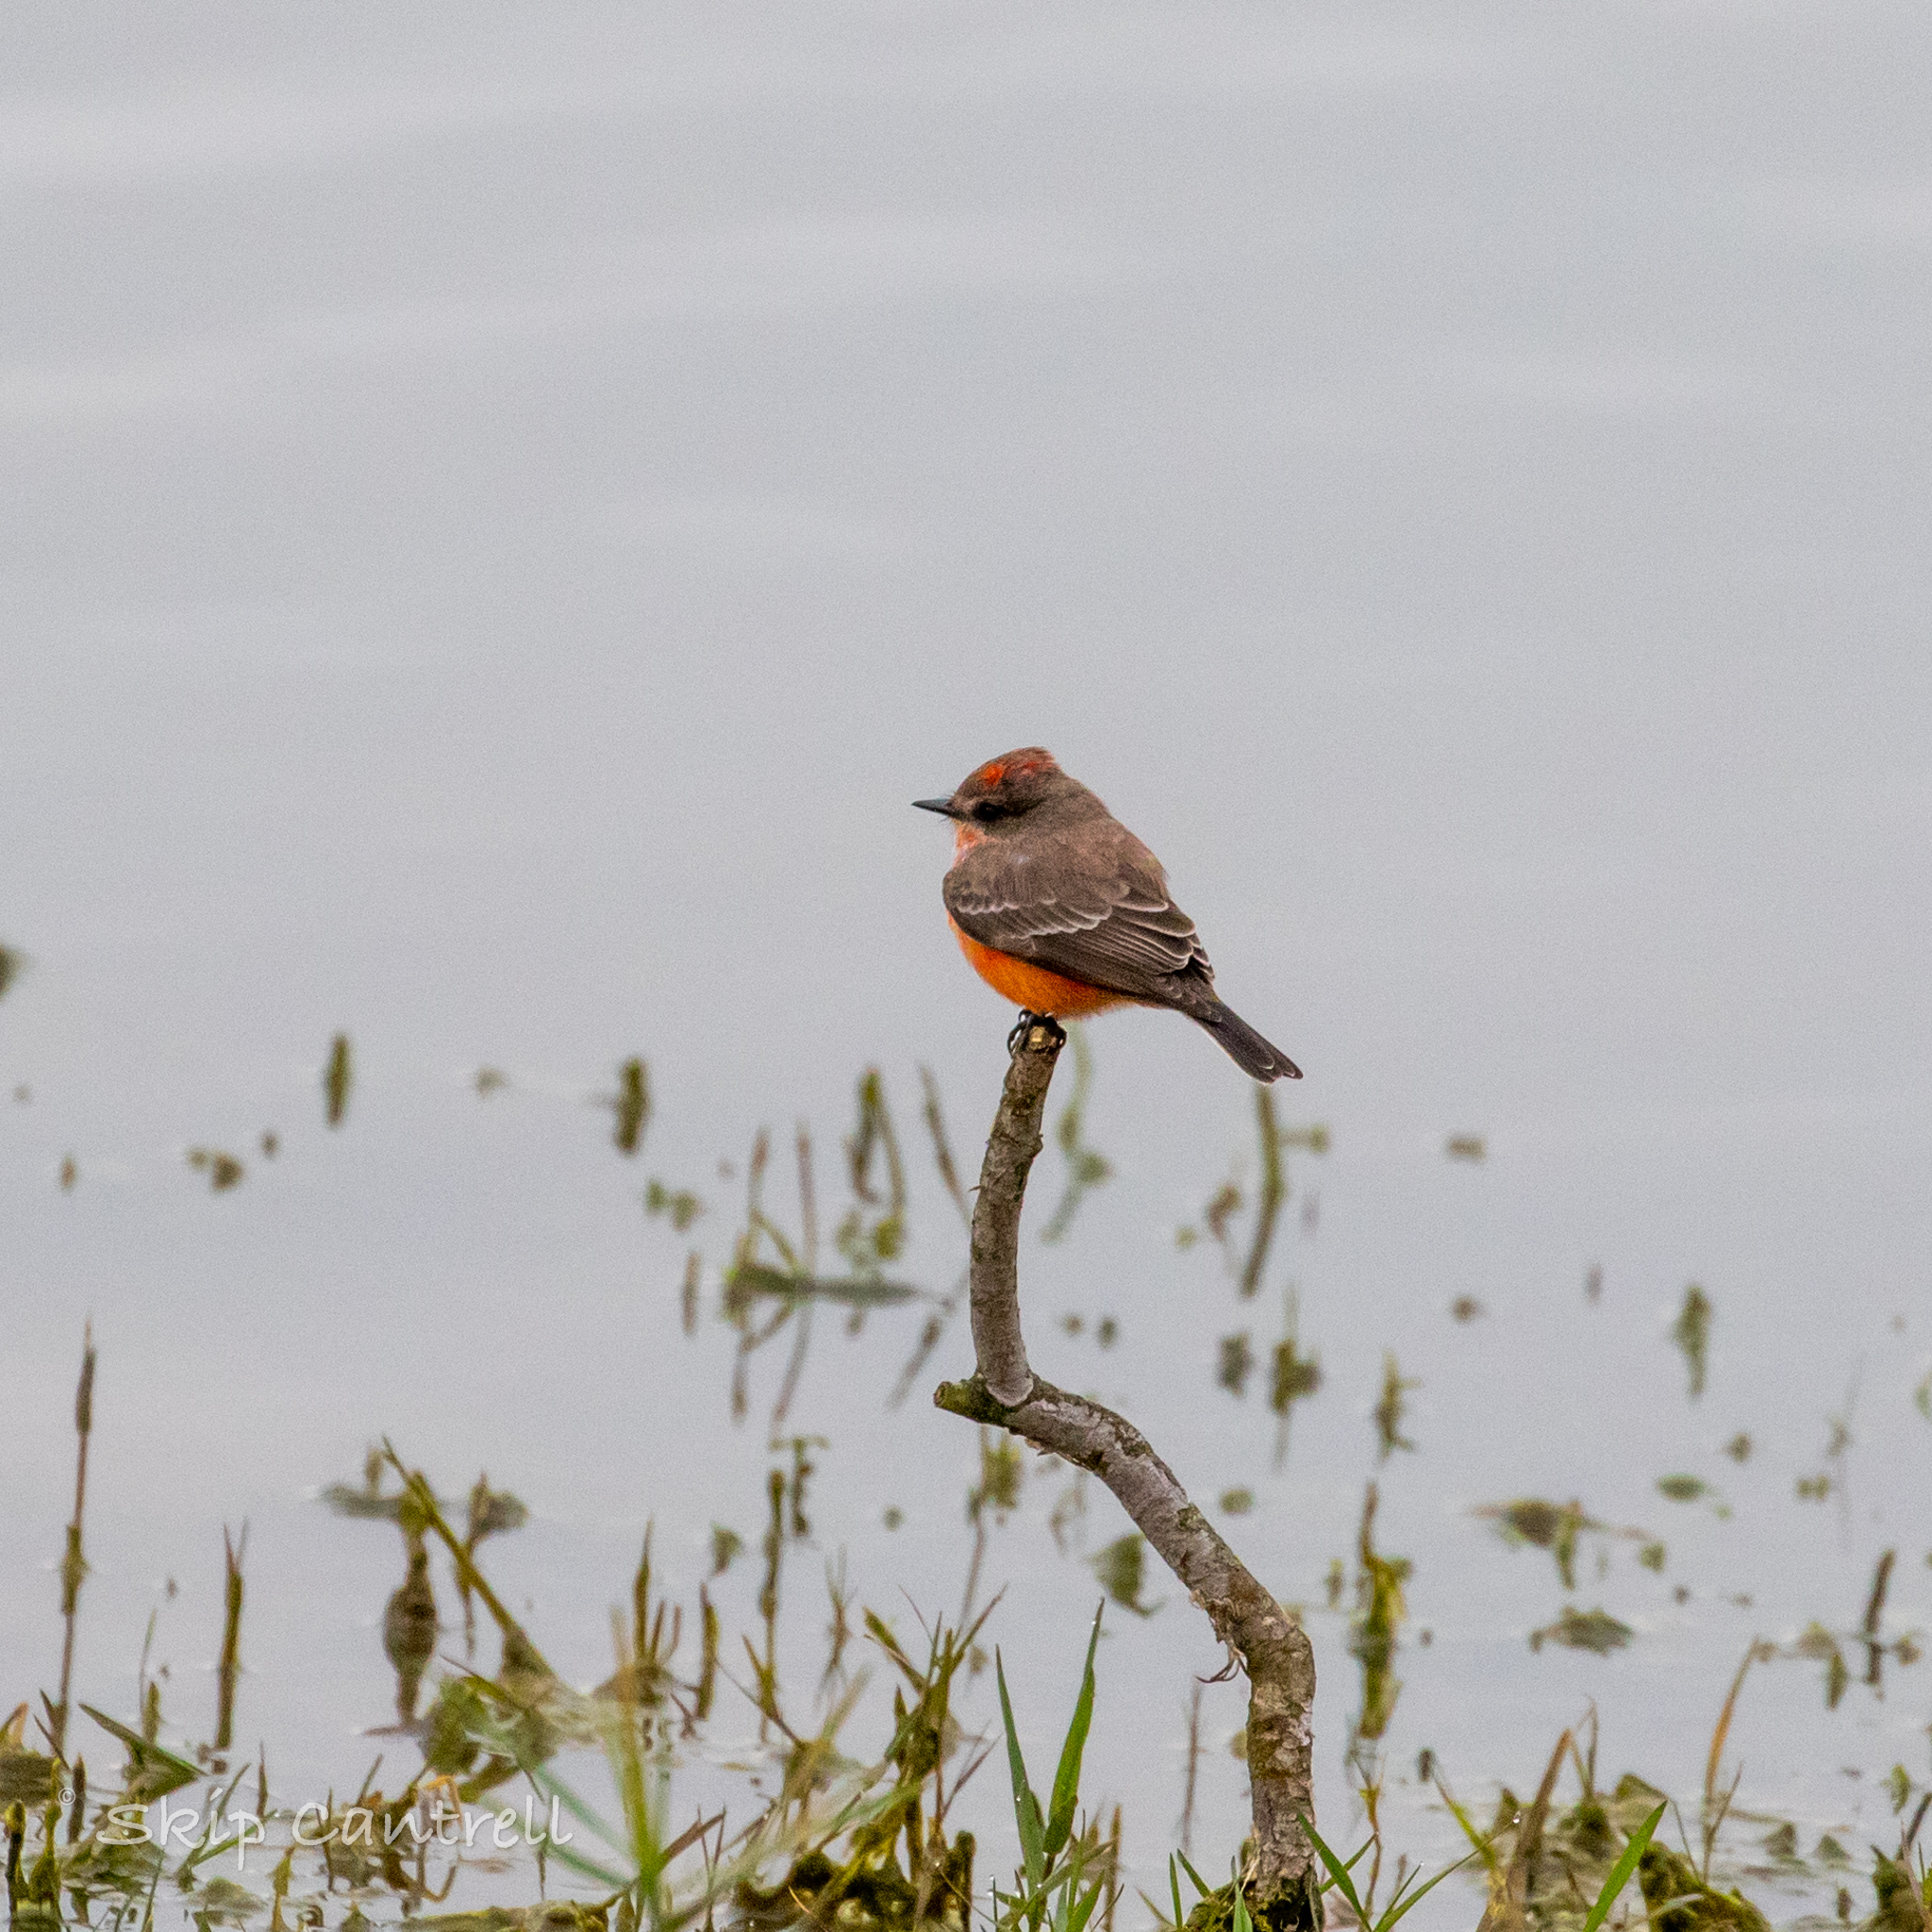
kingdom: Animalia
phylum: Chordata
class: Aves
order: Passeriformes
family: Tyrannidae
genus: Pyrocephalus
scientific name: Pyrocephalus rubinus
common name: Vermilion flycatcher
